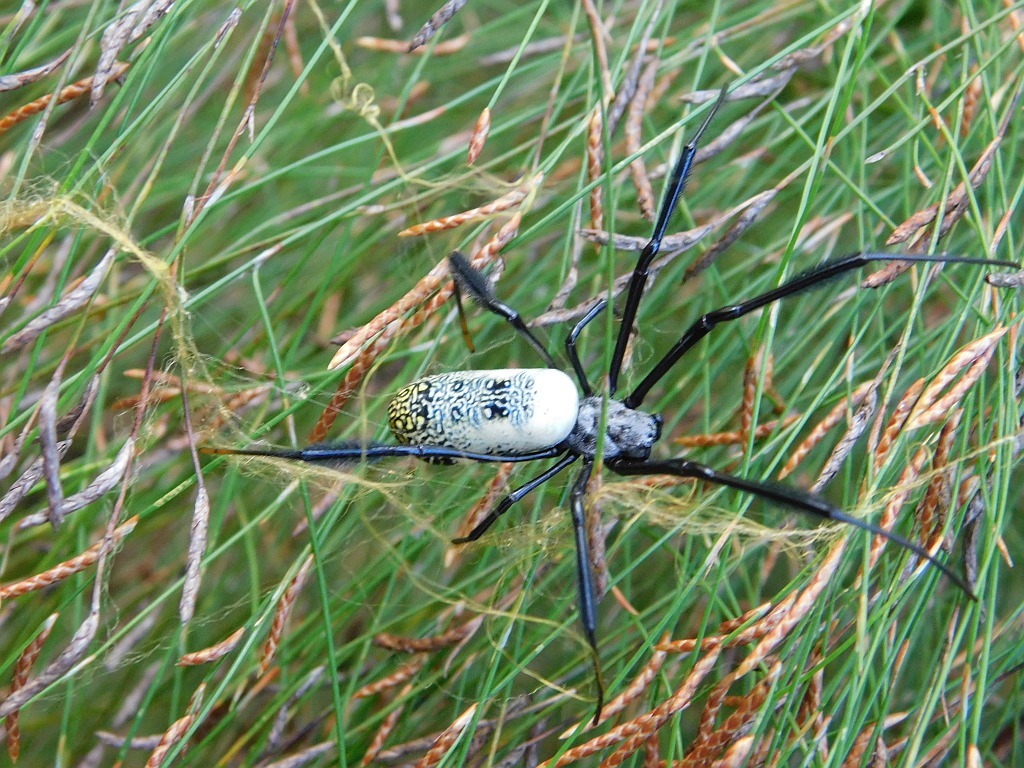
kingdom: Animalia
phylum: Arthropoda
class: Arachnida
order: Araneae
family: Araneidae
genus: Trichonephila
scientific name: Trichonephila fenestrata
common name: Hairy golden orb weaver
